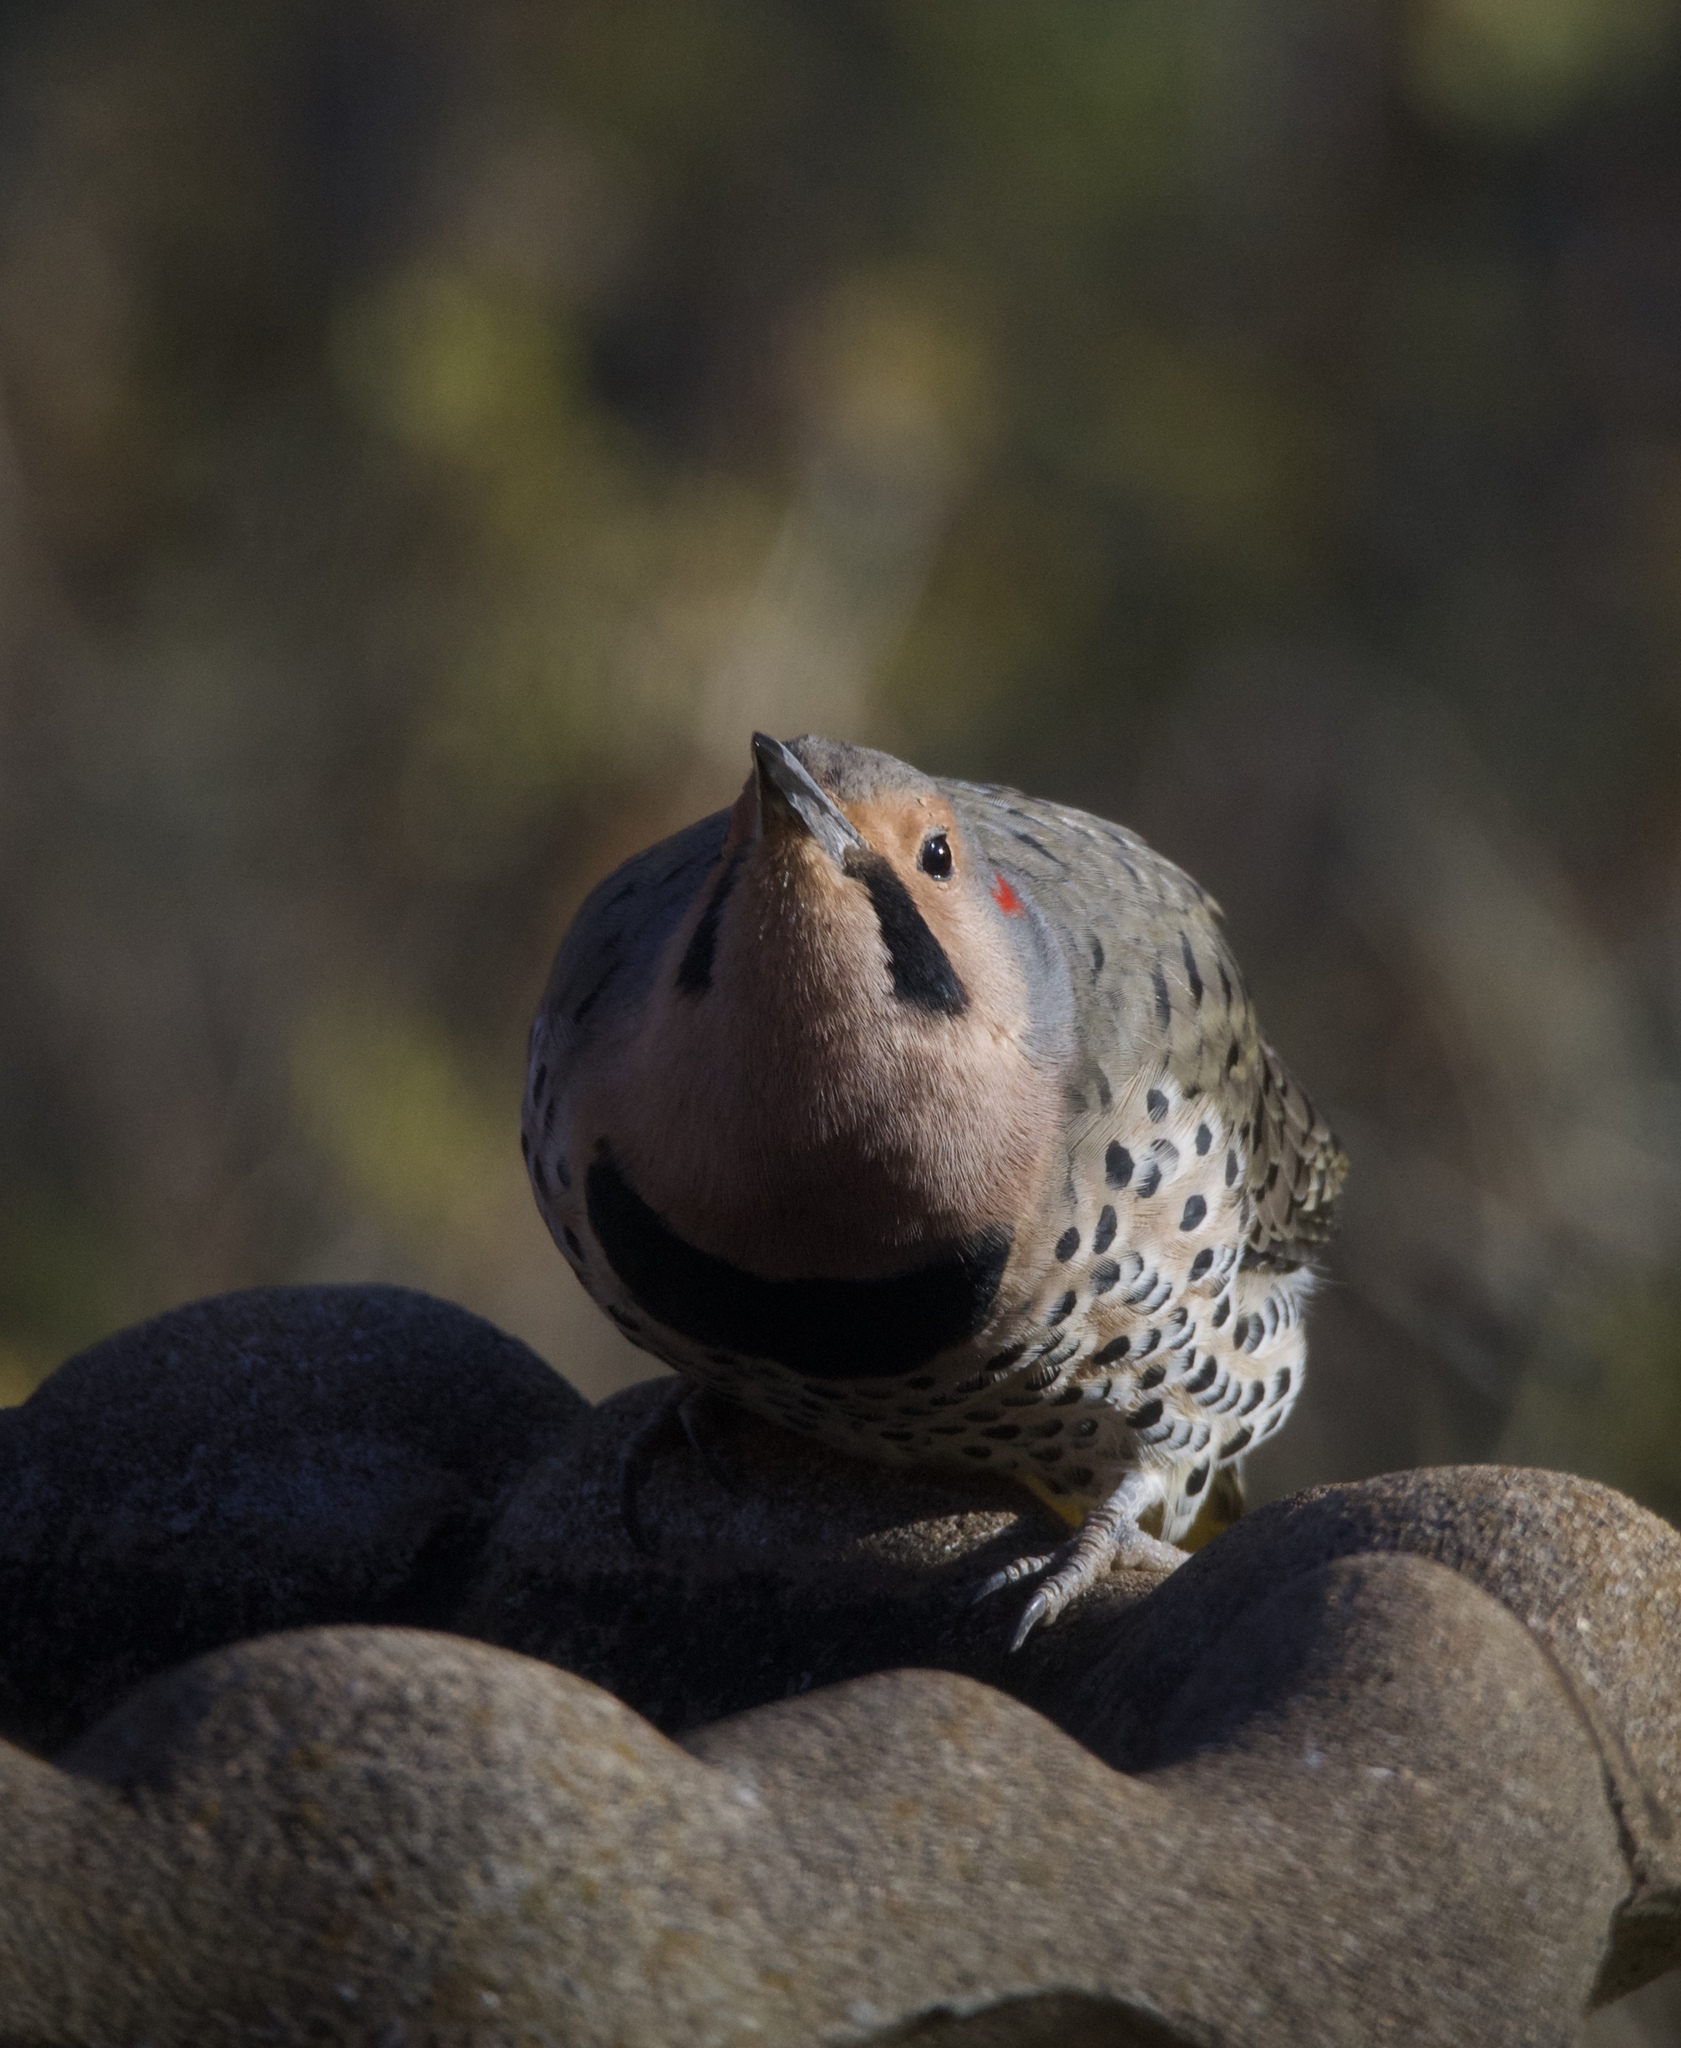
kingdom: Animalia
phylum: Chordata
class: Aves
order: Piciformes
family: Picidae
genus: Colaptes
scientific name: Colaptes auratus
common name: Northern flicker
